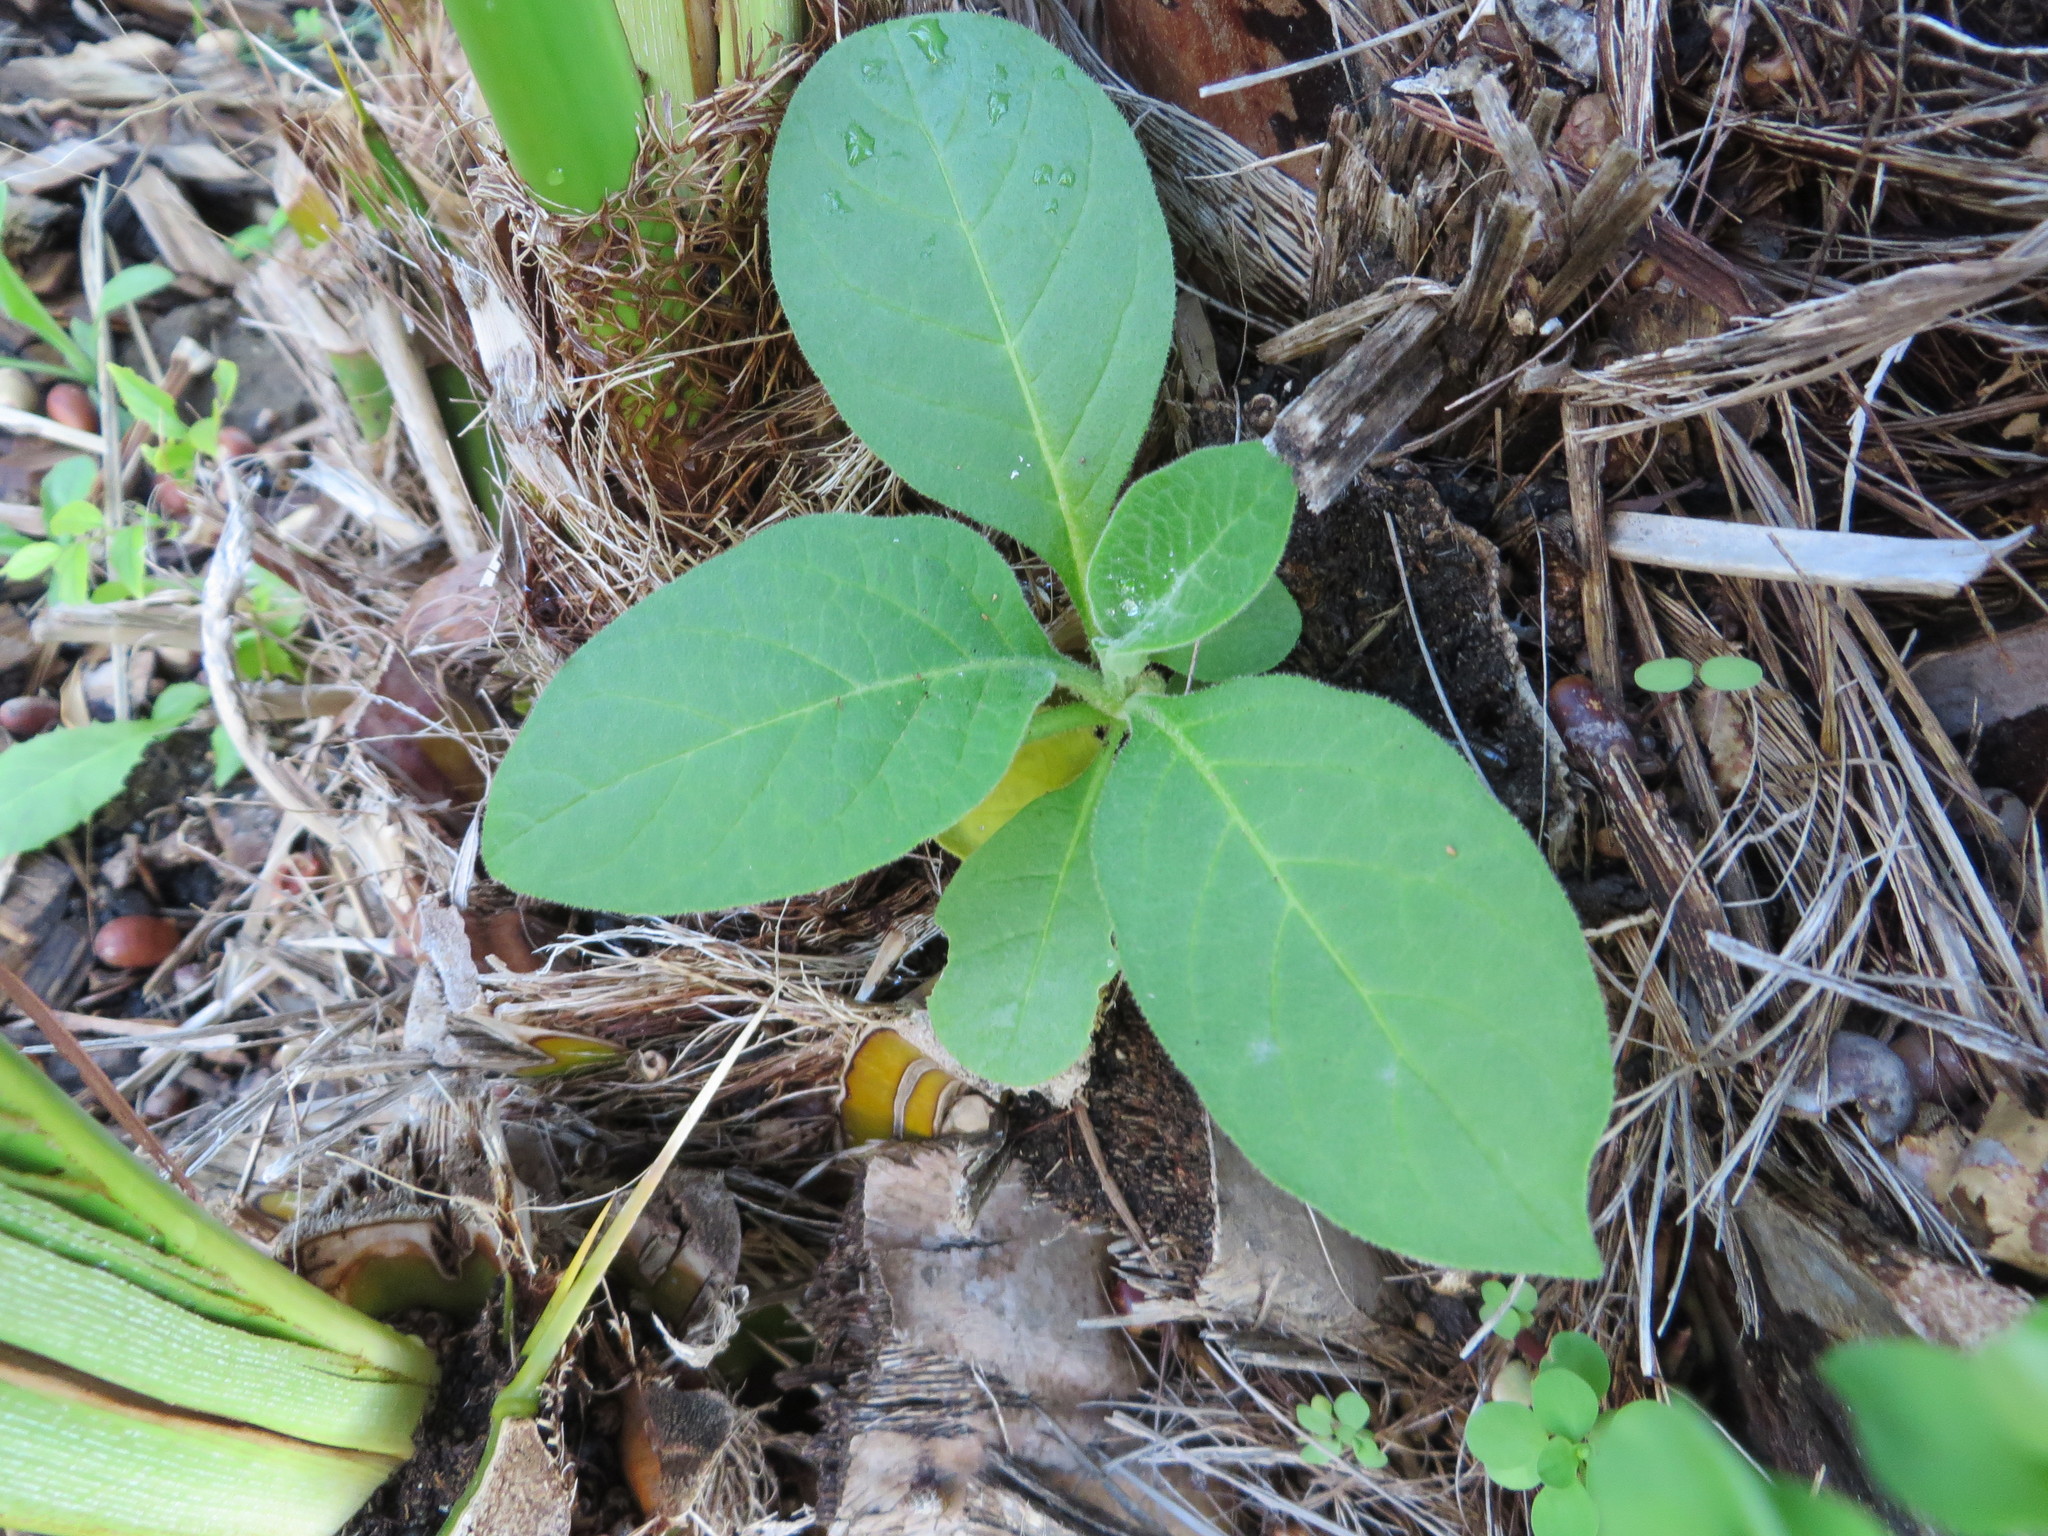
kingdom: Plantae
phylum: Tracheophyta
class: Magnoliopsida
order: Solanales
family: Solanaceae
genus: Solanum
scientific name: Solanum mauritianum
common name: Earleaf nightshade
